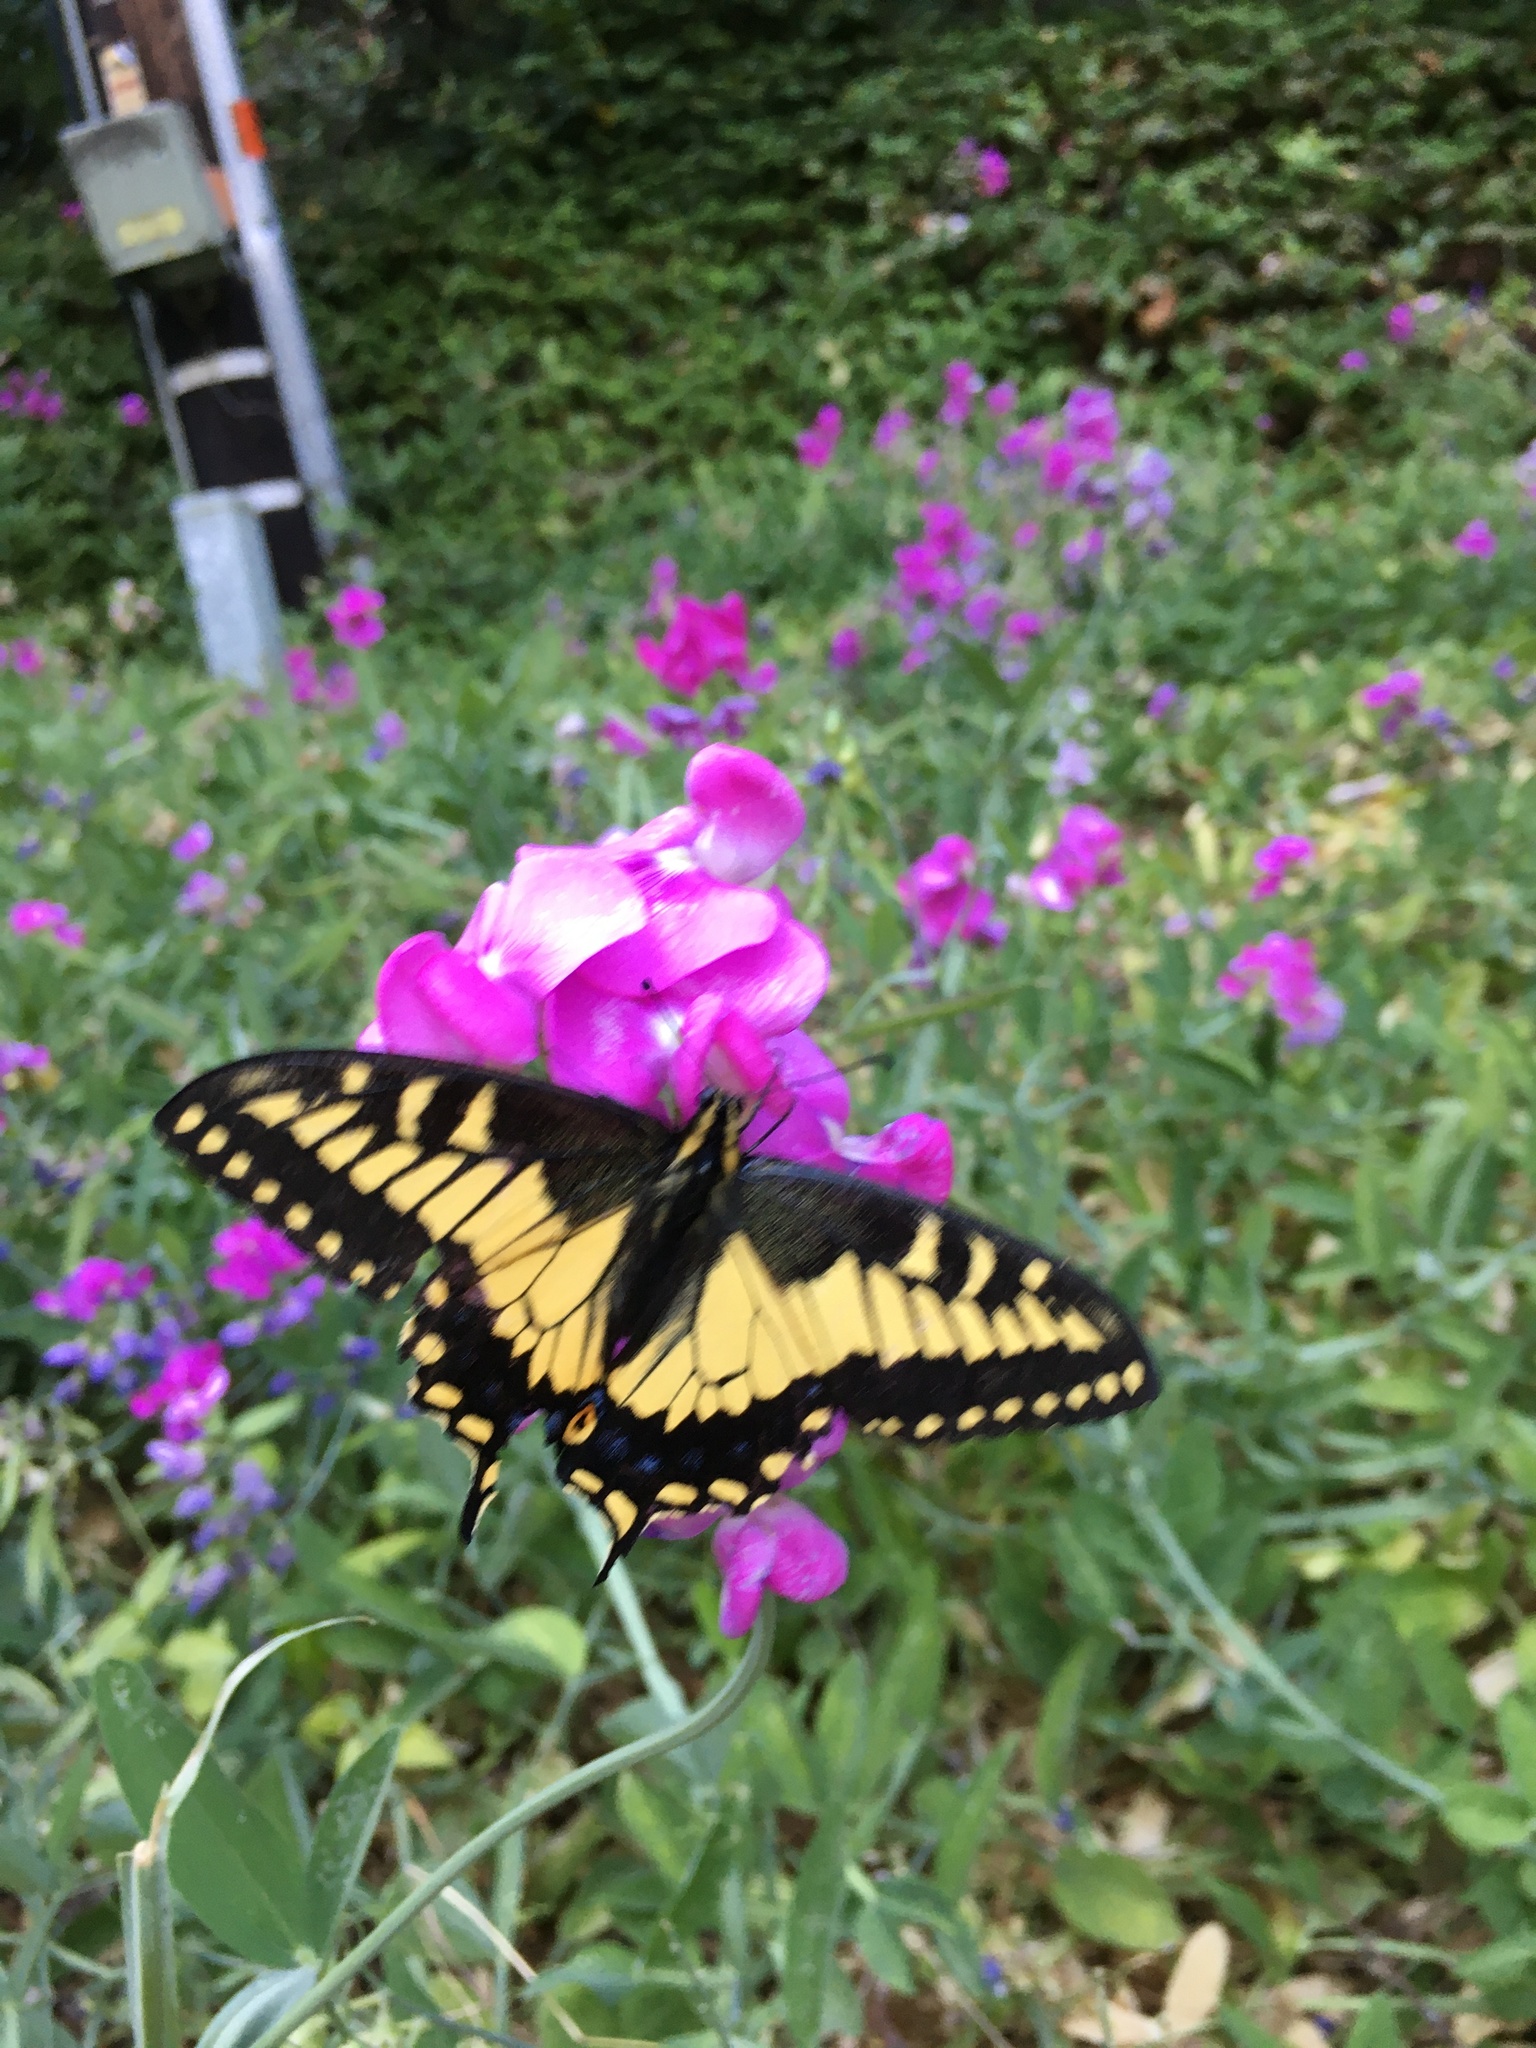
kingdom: Animalia
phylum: Arthropoda
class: Insecta
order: Lepidoptera
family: Papilionidae
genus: Papilio
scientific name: Papilio zelicaon
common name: Anise swallowtail
